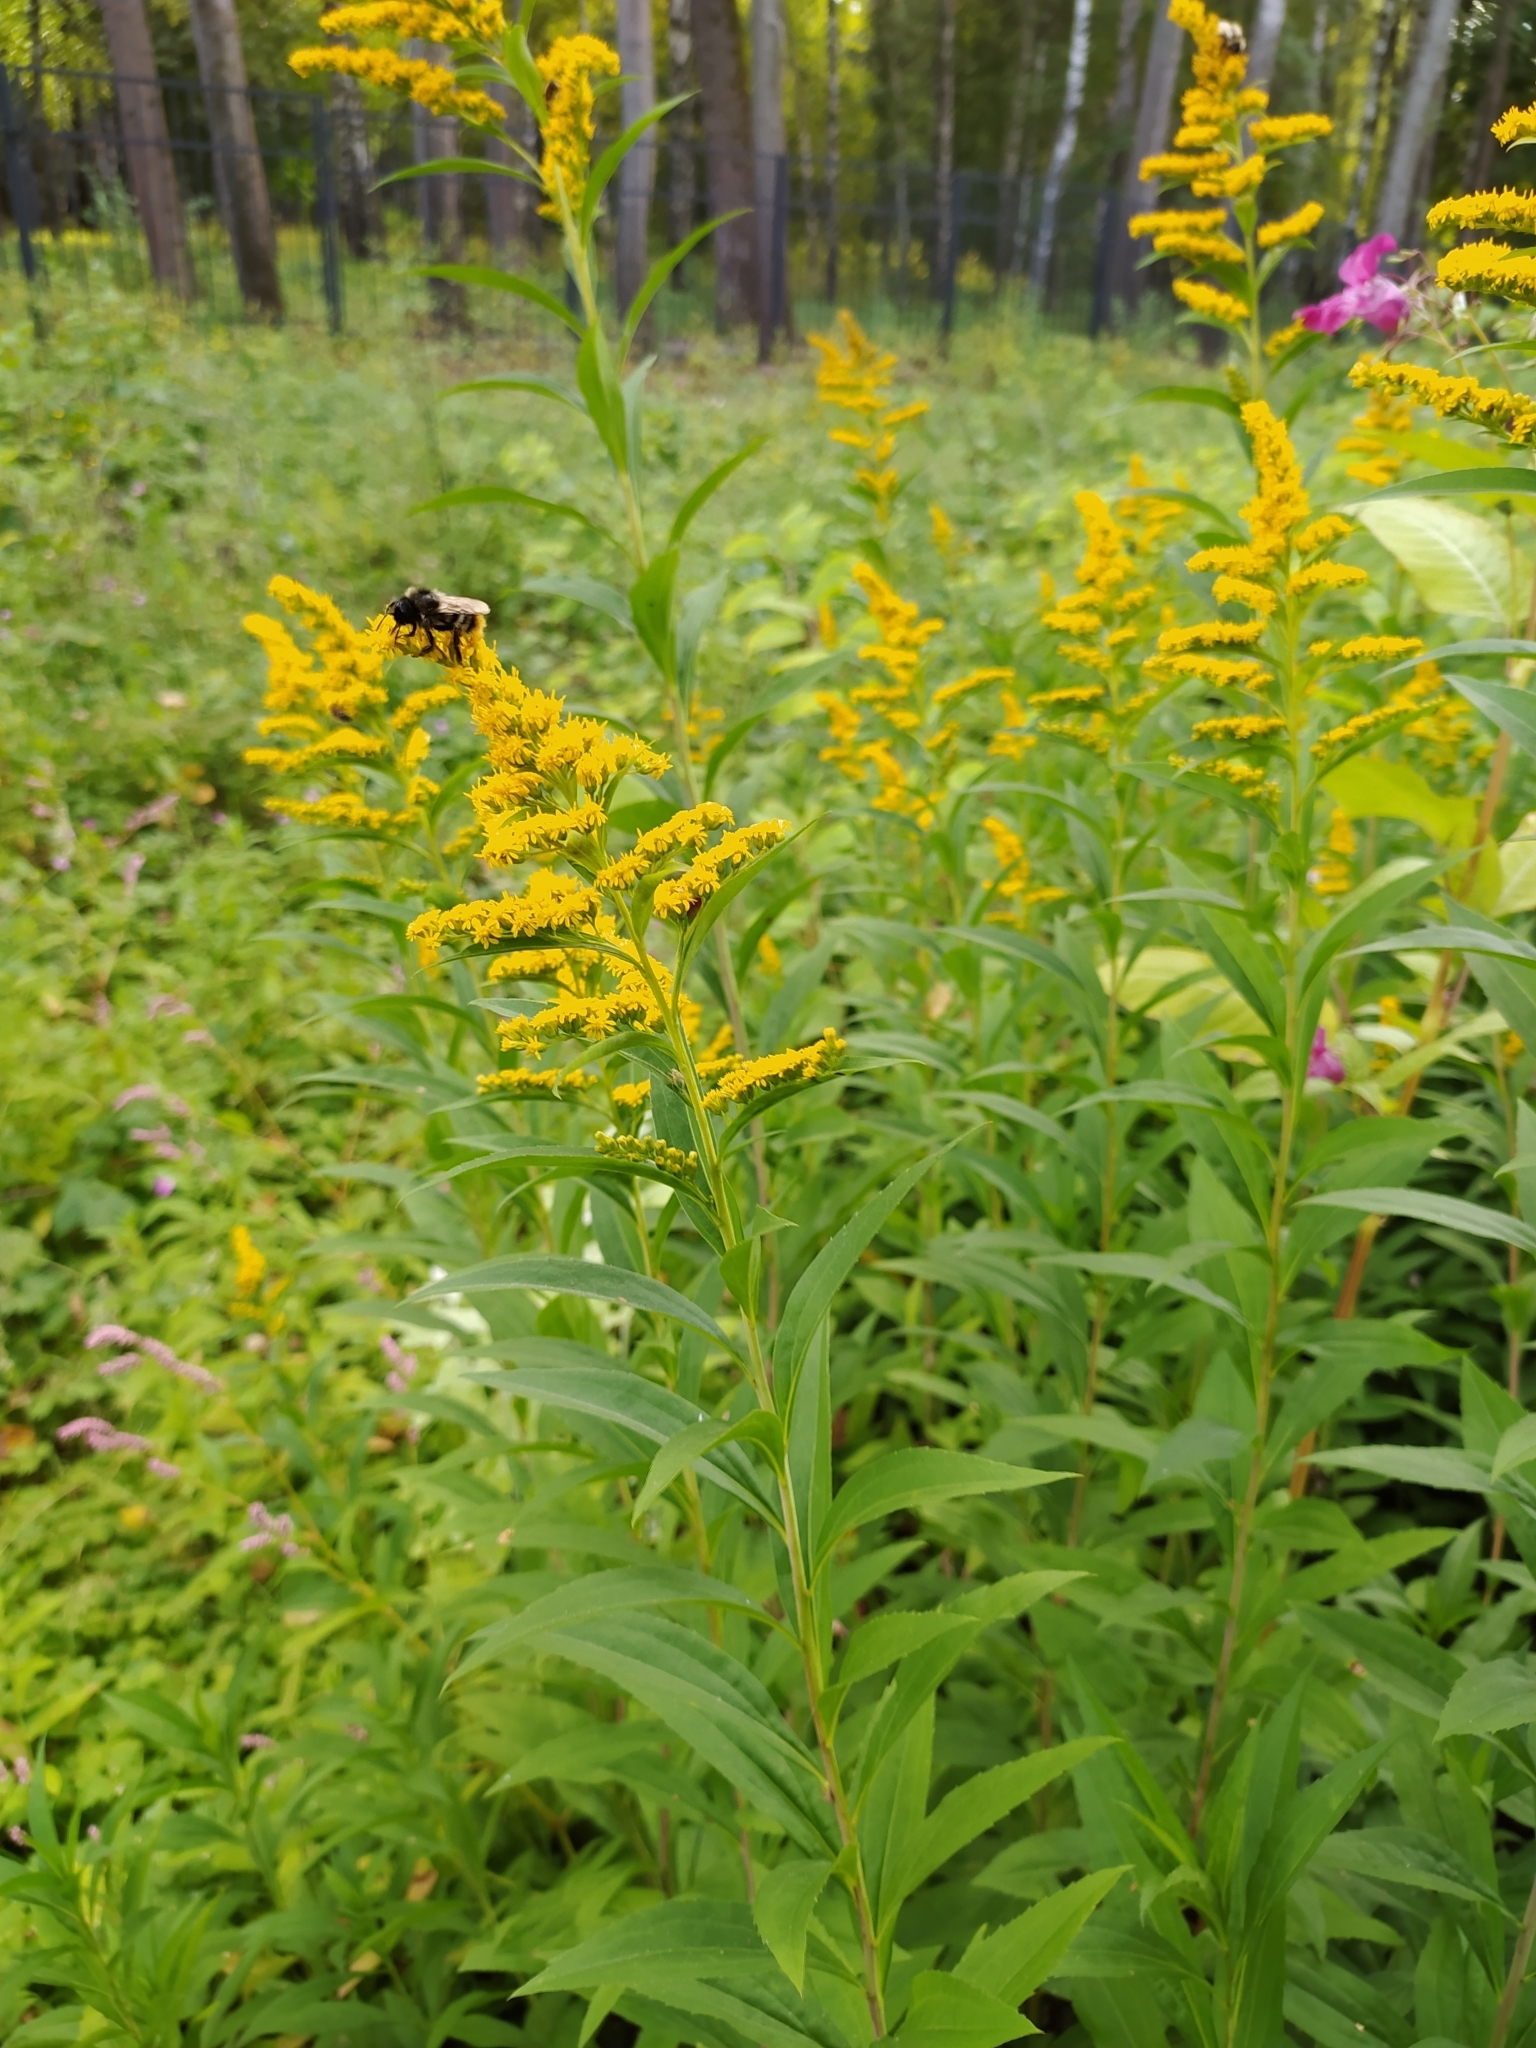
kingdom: Plantae
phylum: Tracheophyta
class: Magnoliopsida
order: Asterales
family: Asteraceae
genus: Solidago
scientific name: Solidago canadensis
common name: Canada goldenrod
